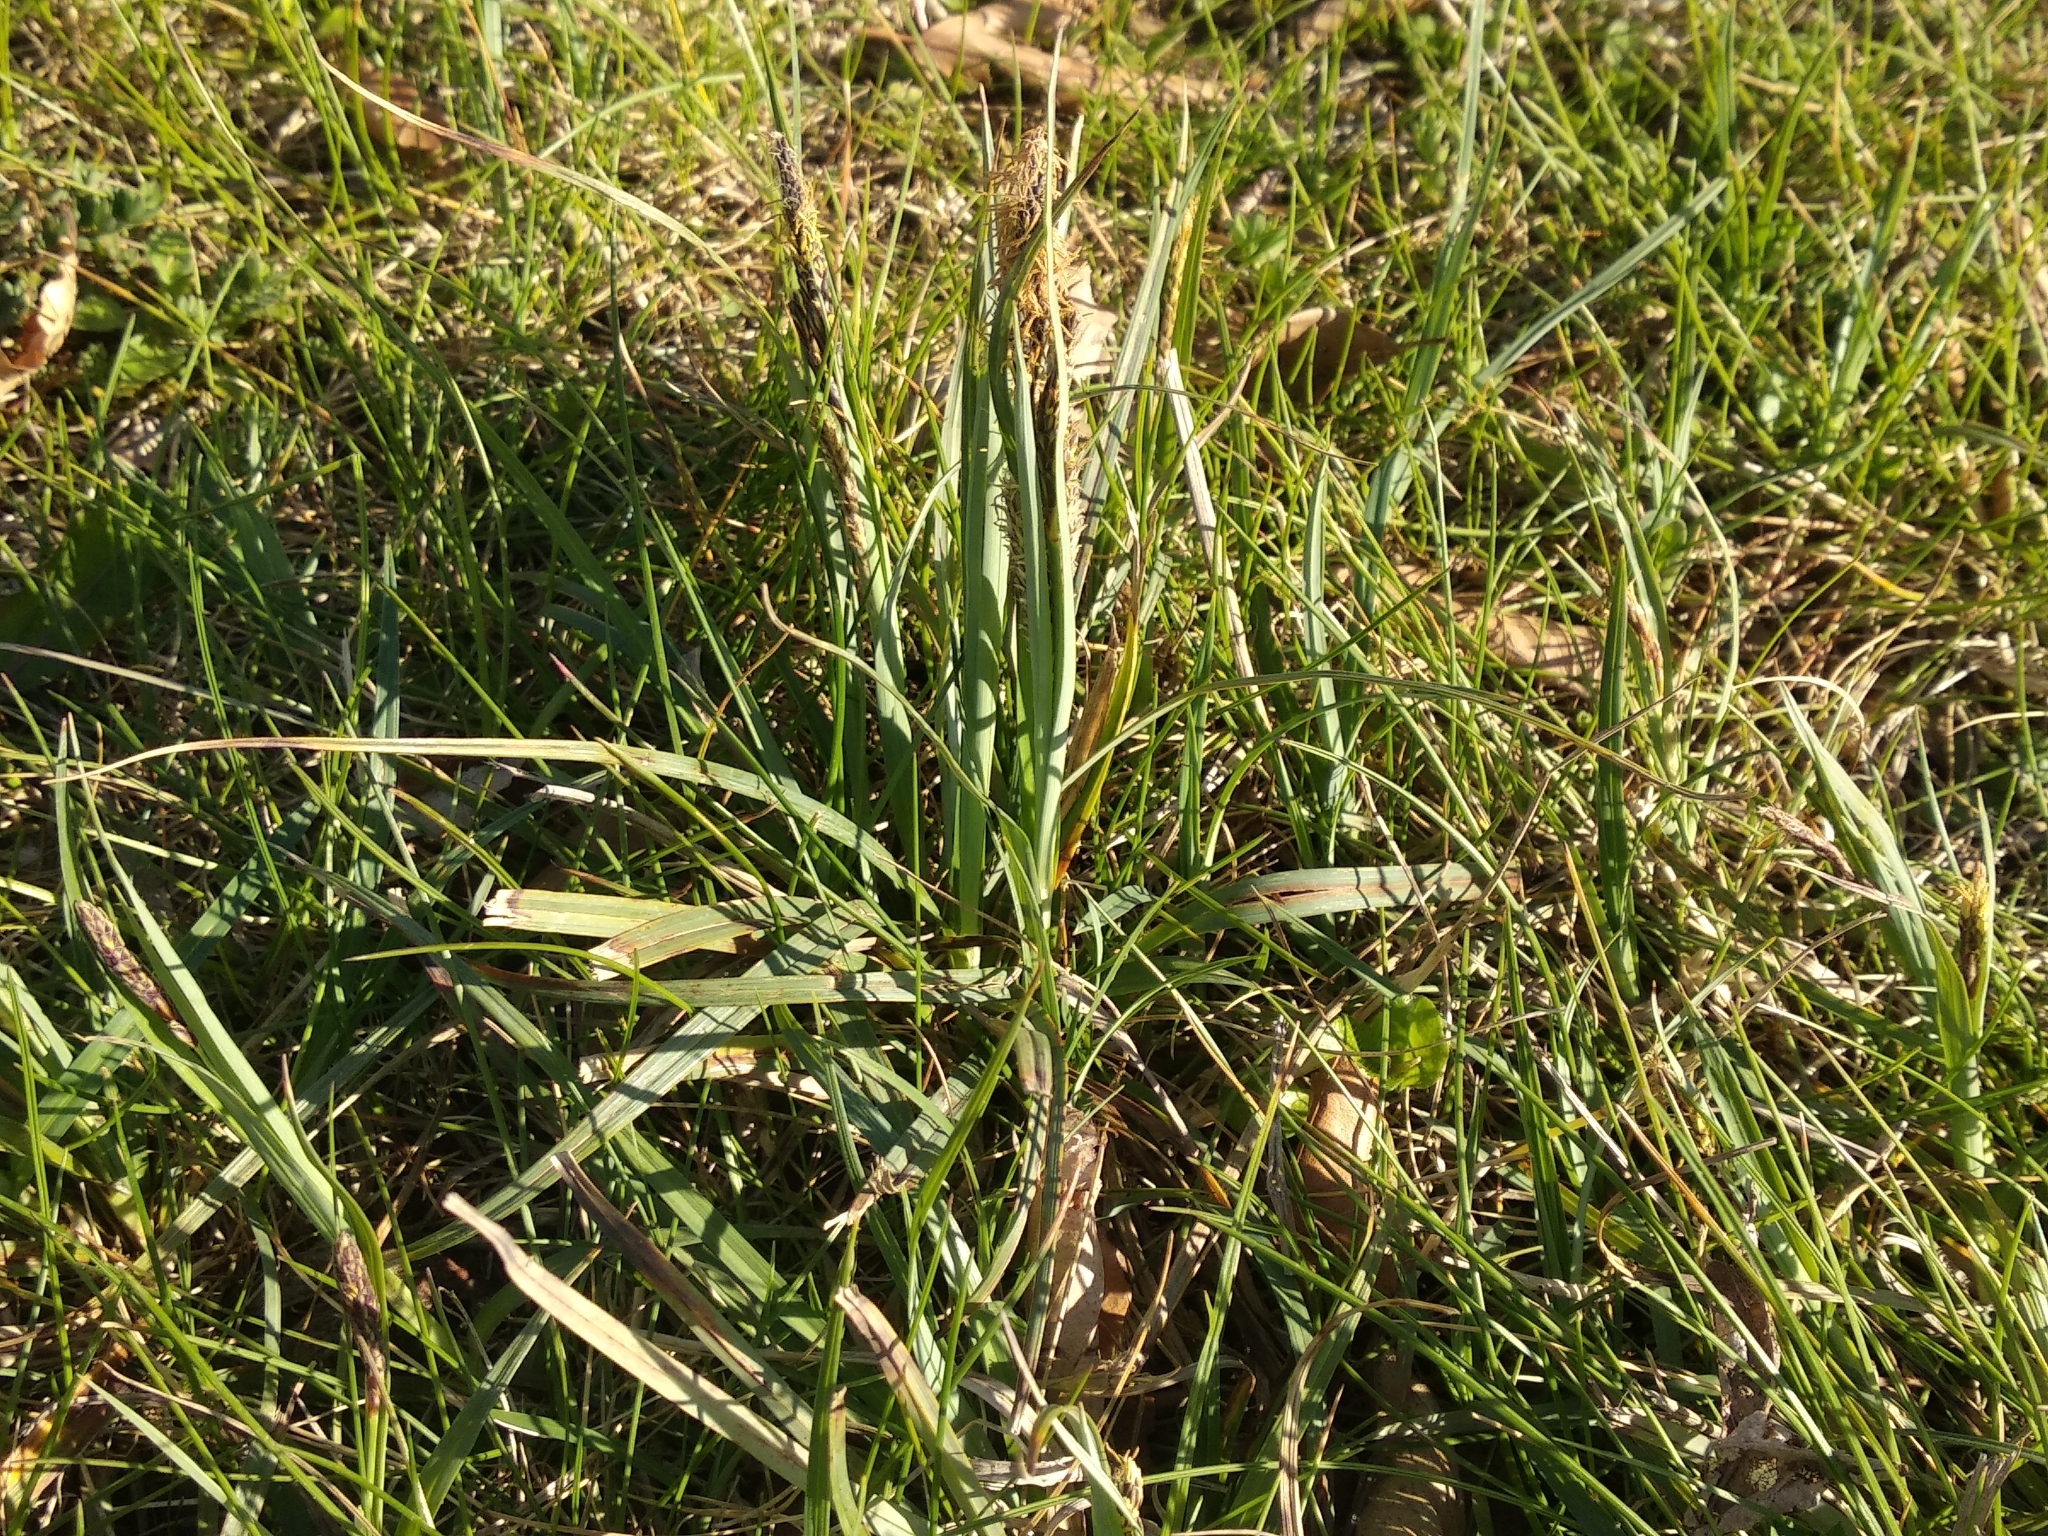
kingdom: Plantae
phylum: Tracheophyta
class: Liliopsida
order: Poales
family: Cyperaceae
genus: Carex
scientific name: Carex flacca
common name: Glaucous sedge
